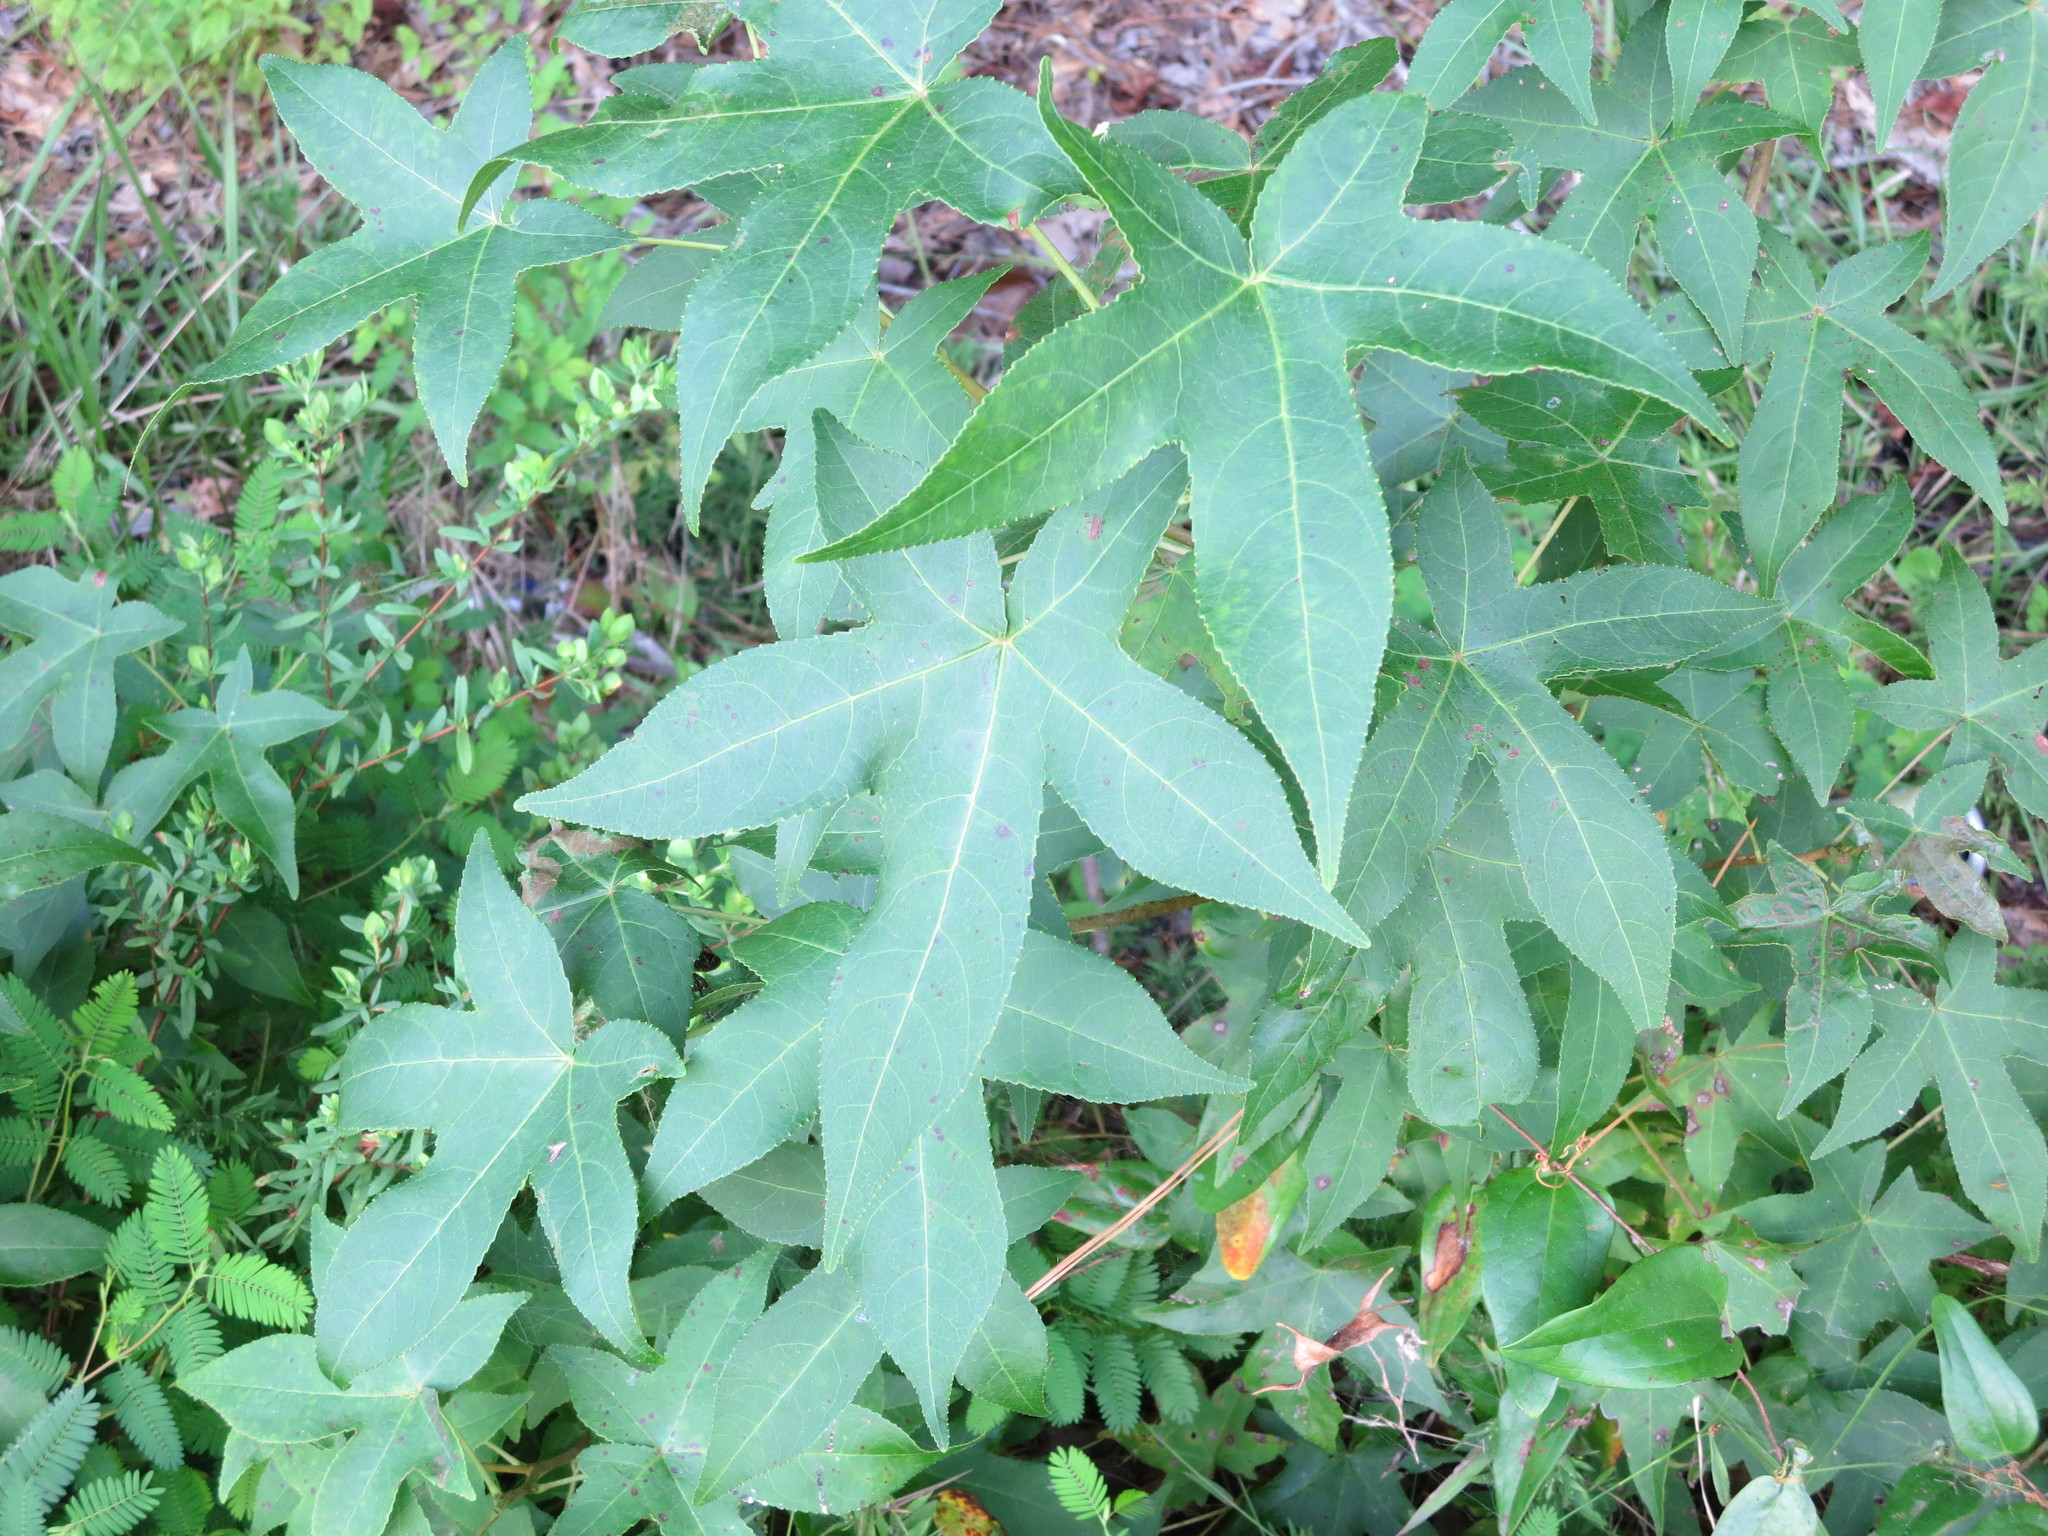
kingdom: Plantae
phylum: Tracheophyta
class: Magnoliopsida
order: Saxifragales
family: Altingiaceae
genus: Liquidambar
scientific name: Liquidambar styraciflua
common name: Sweet gum
